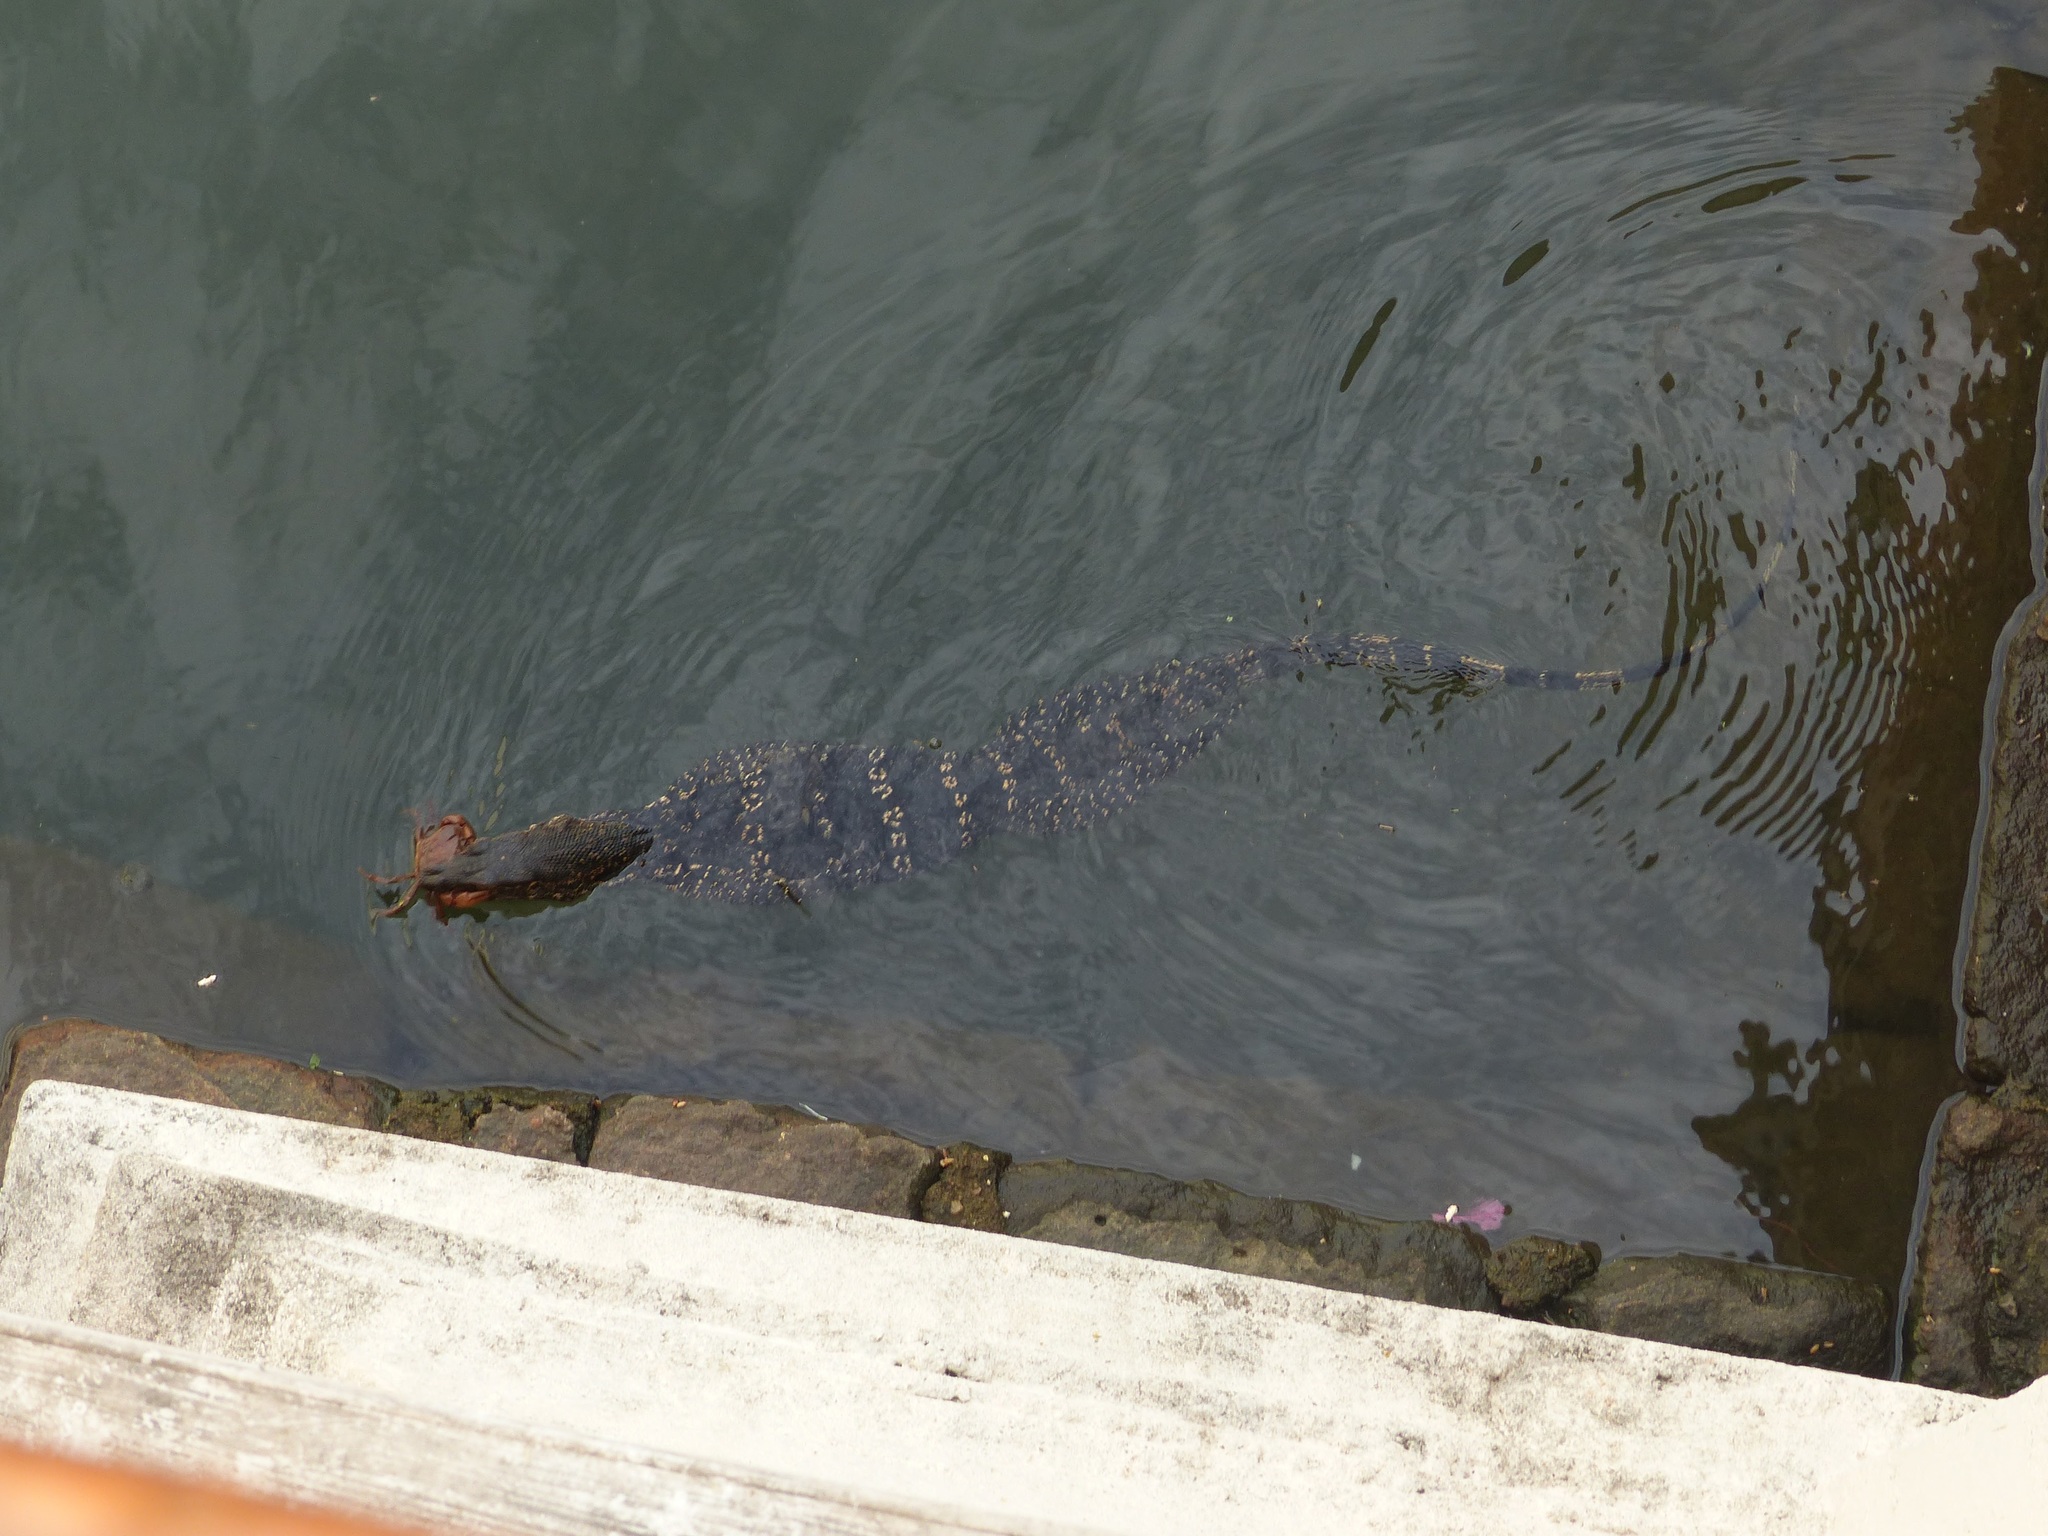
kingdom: Animalia
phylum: Chordata
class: Squamata
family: Varanidae
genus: Varanus
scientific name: Varanus salvator
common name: Common water monitor
